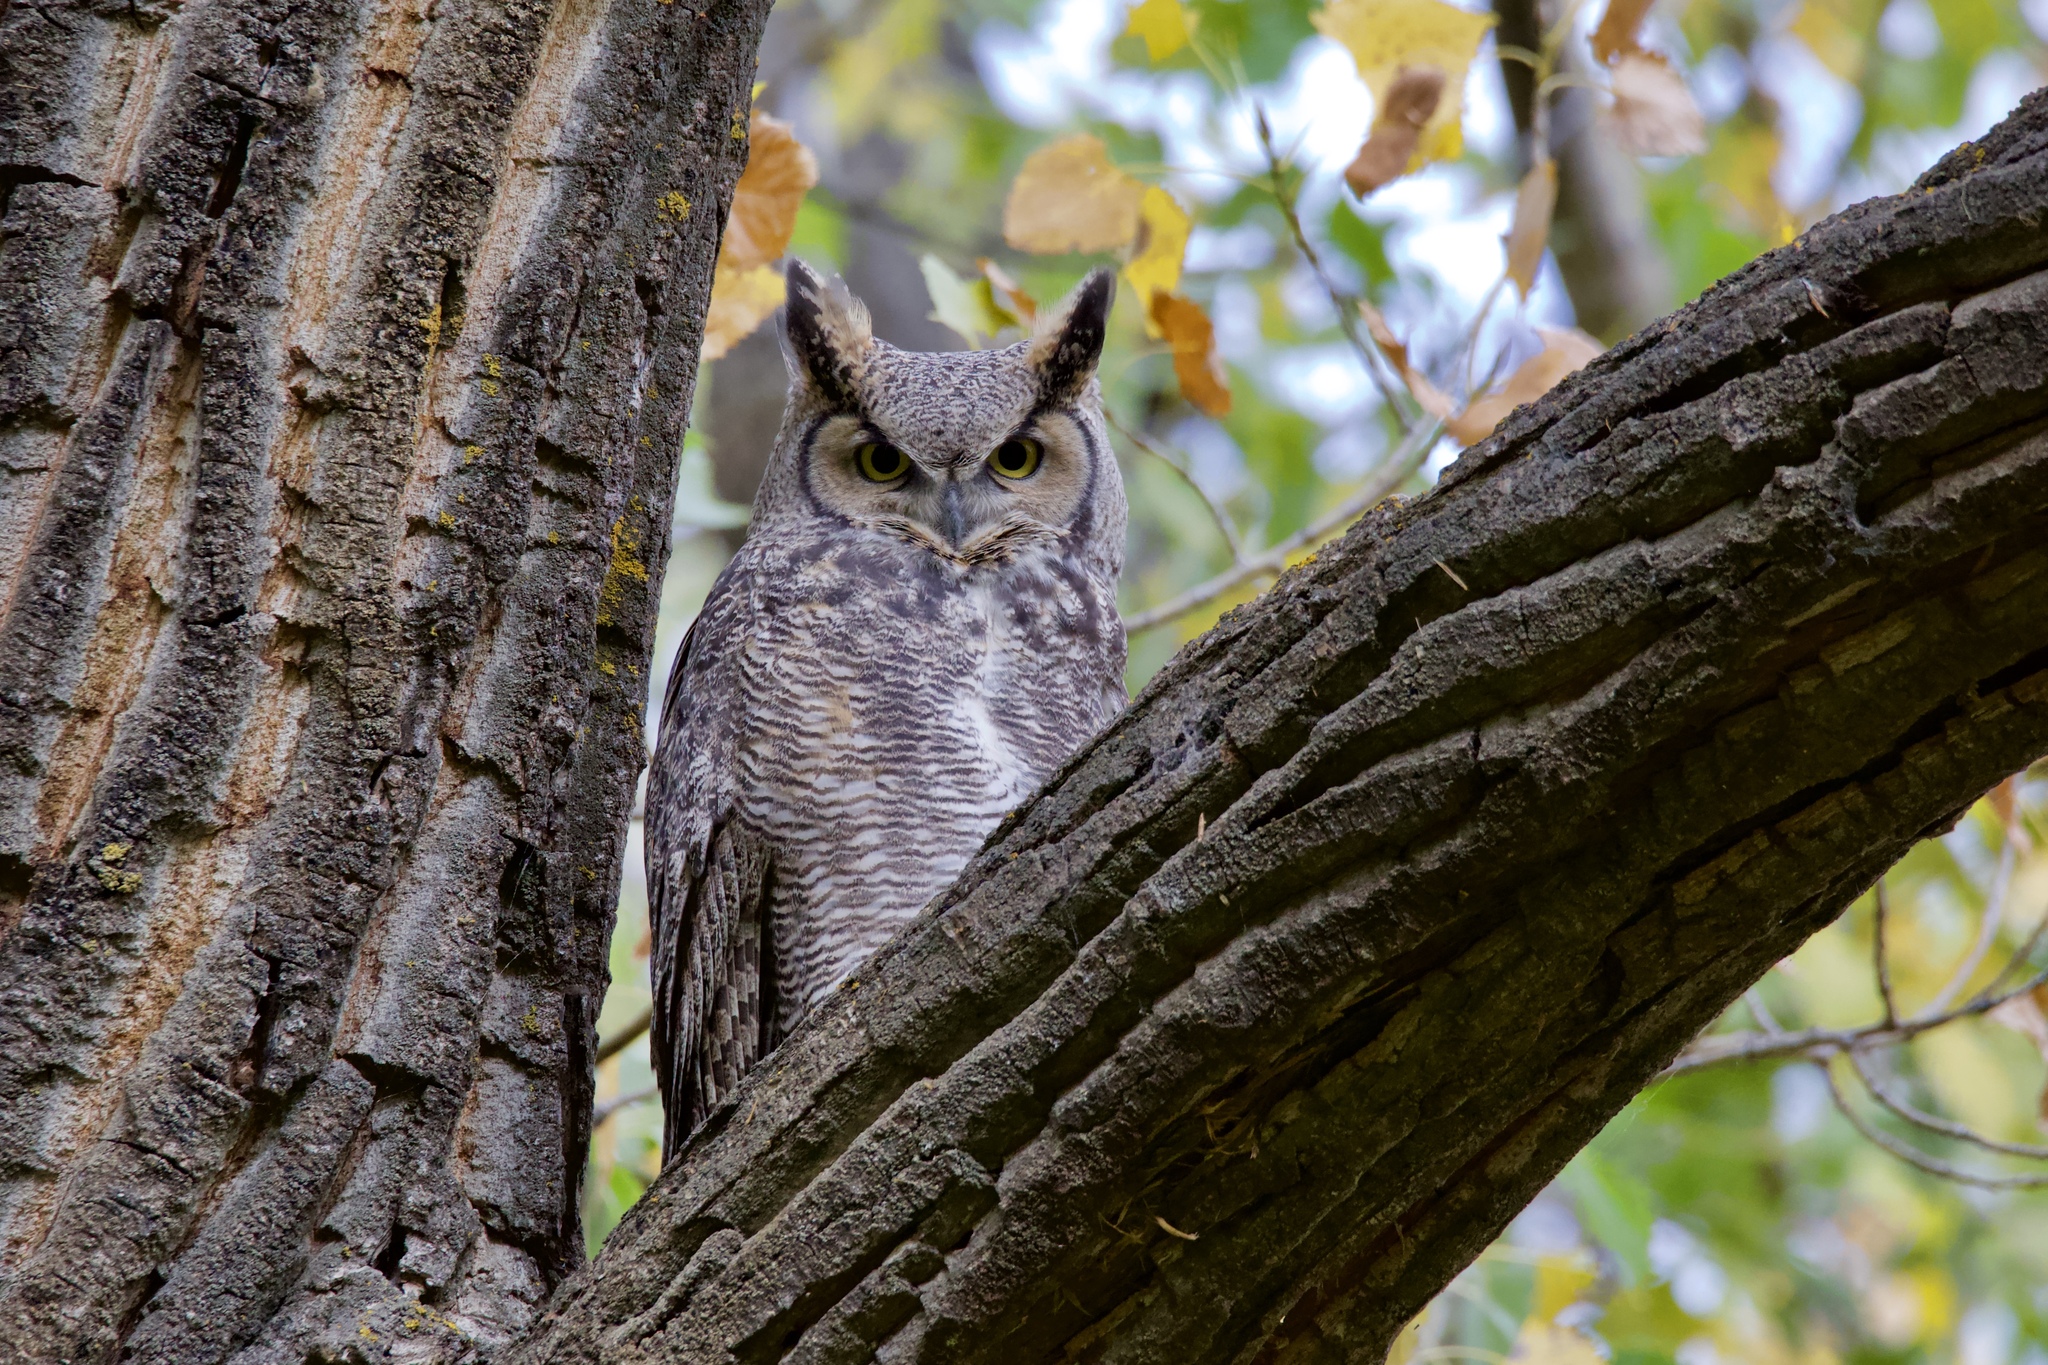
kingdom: Animalia
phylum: Chordata
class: Aves
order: Strigiformes
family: Strigidae
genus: Bubo
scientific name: Bubo virginianus
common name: Great horned owl
